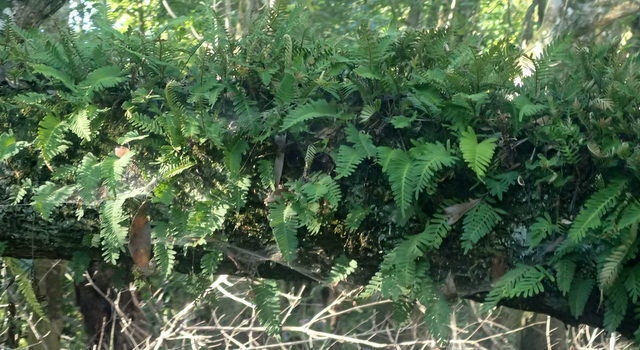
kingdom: Plantae
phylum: Tracheophyta
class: Polypodiopsida
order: Polypodiales
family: Polypodiaceae
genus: Pleopeltis
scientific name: Pleopeltis michauxiana
